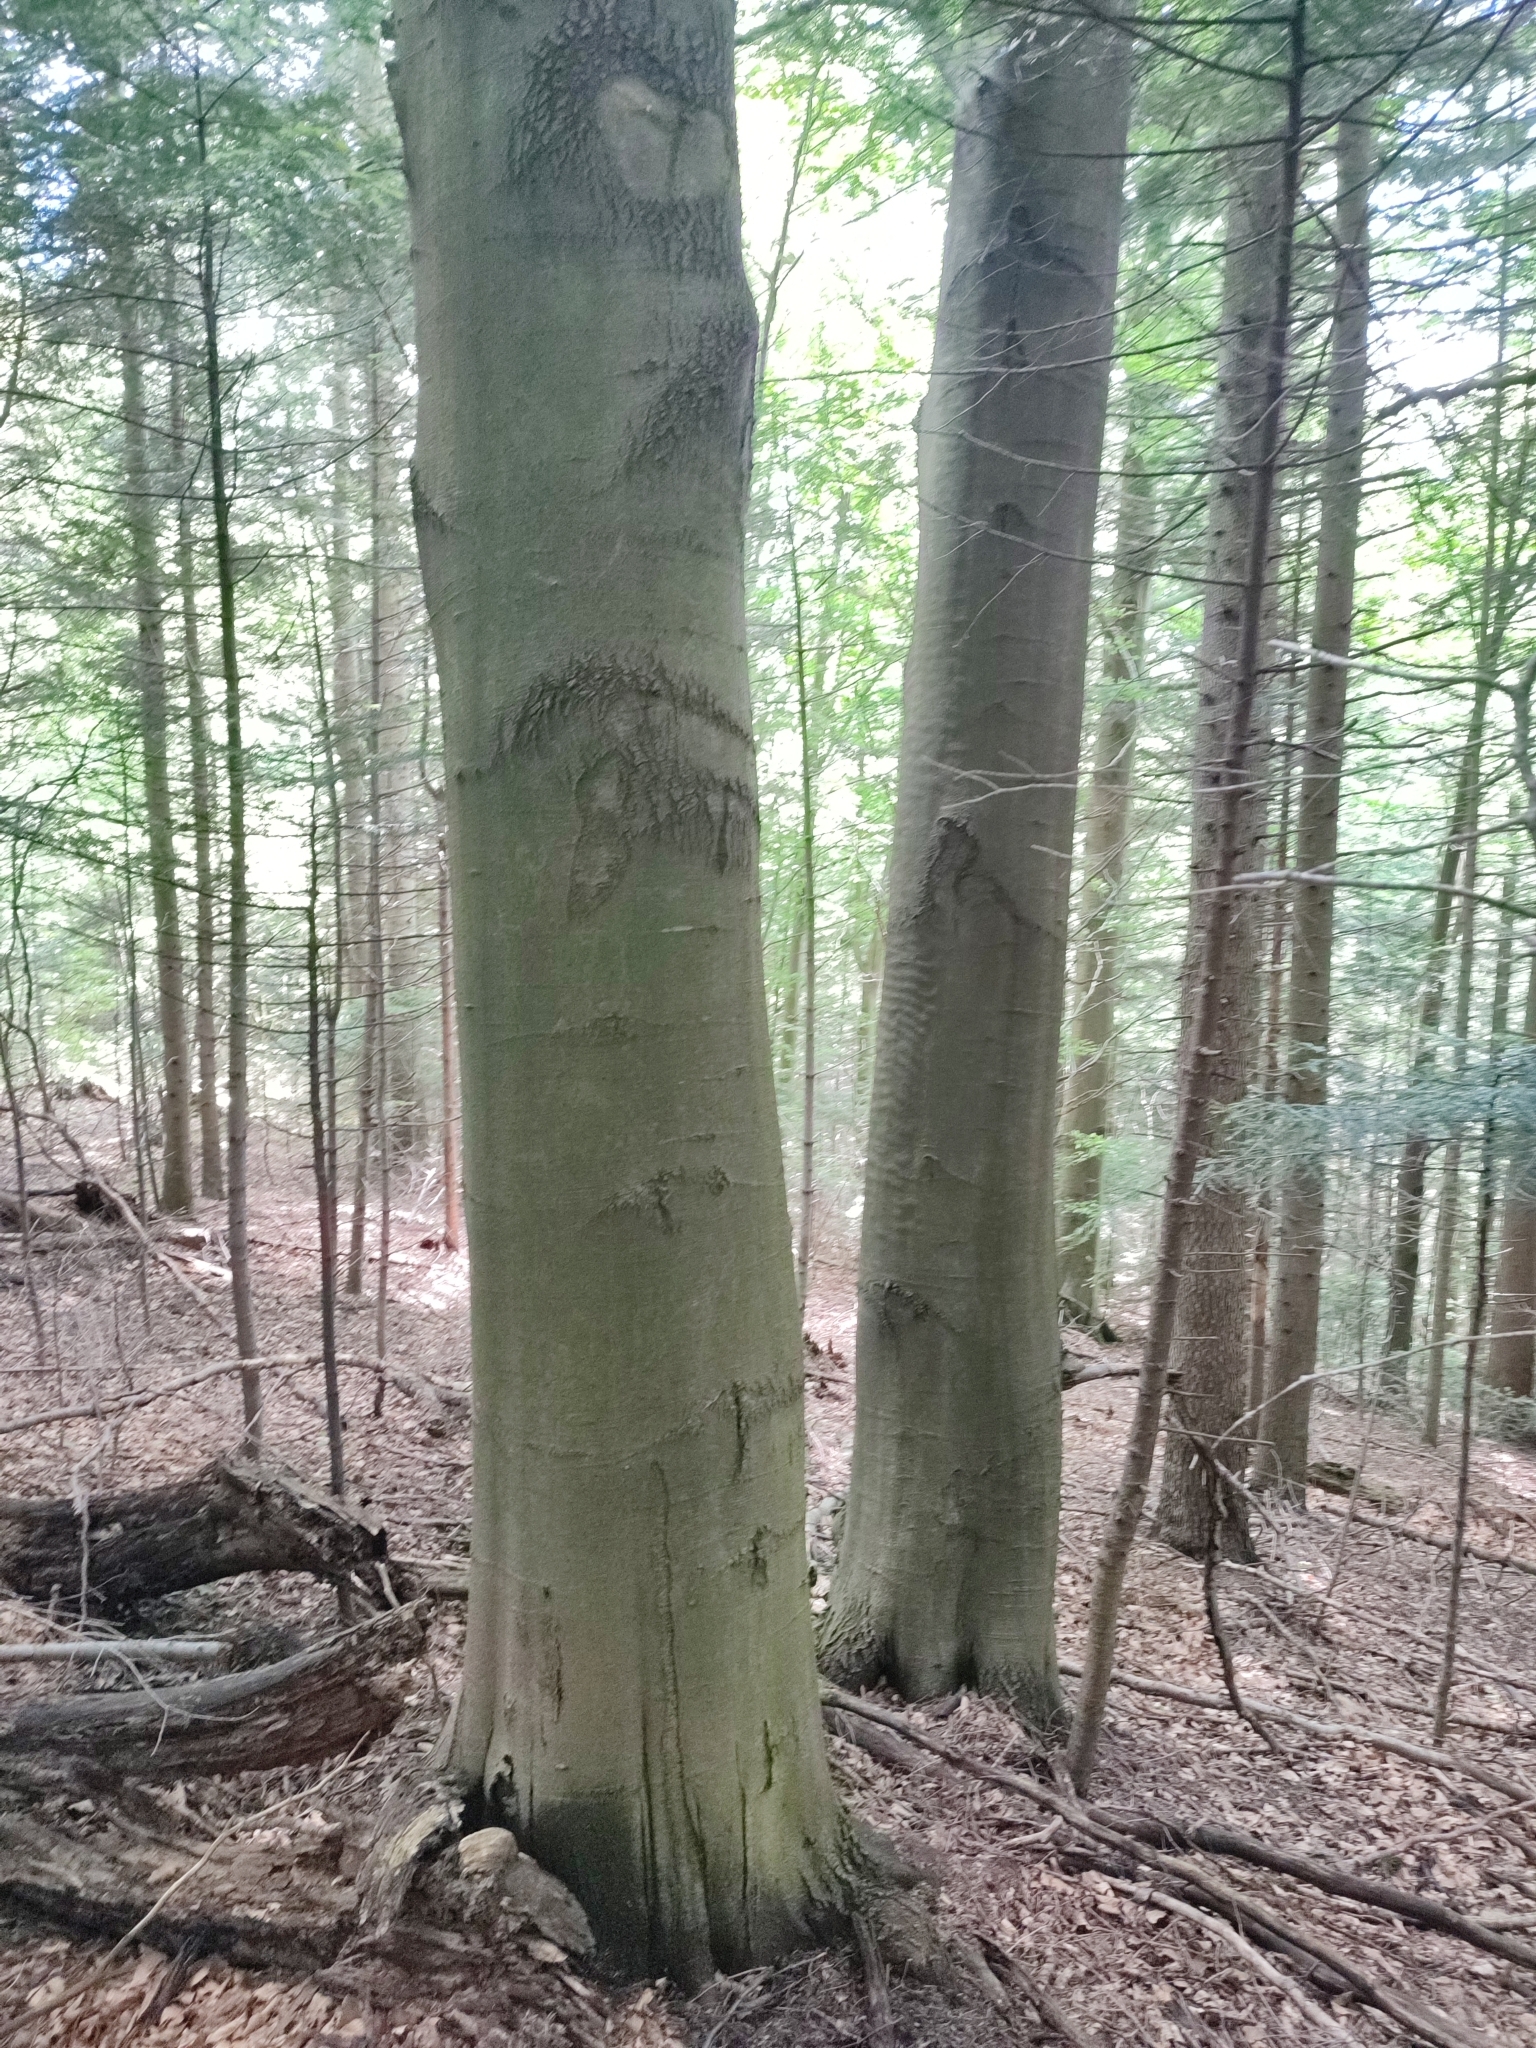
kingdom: Plantae
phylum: Tracheophyta
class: Magnoliopsida
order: Fagales
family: Fagaceae
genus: Fagus
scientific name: Fagus sylvatica
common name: Beech
